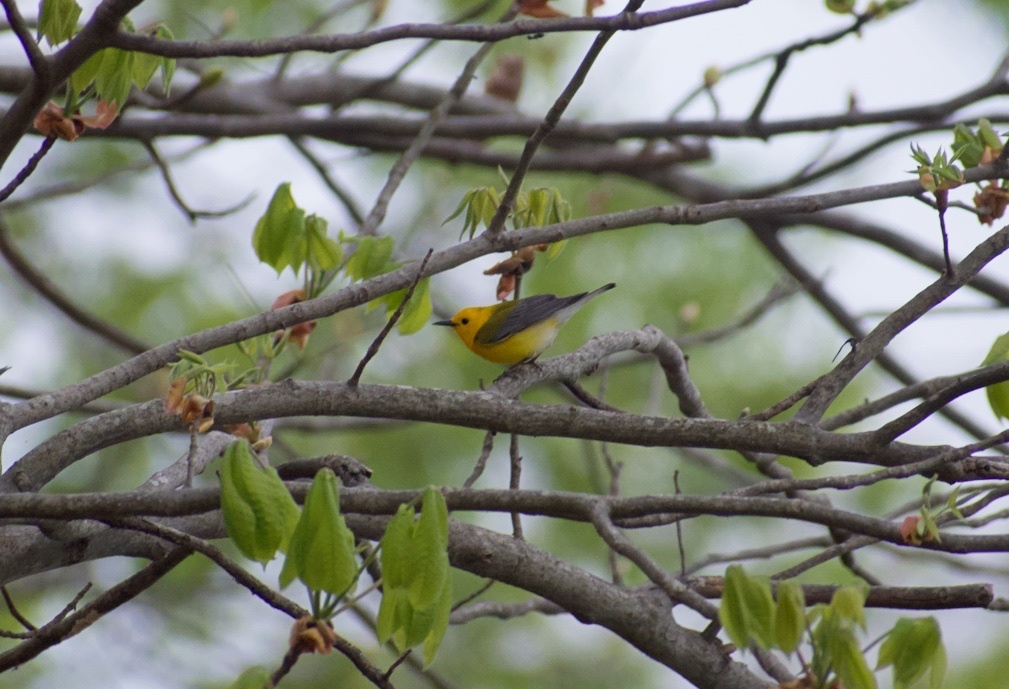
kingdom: Animalia
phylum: Chordata
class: Aves
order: Passeriformes
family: Parulidae
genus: Protonotaria
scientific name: Protonotaria citrea
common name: Prothonotary warbler
